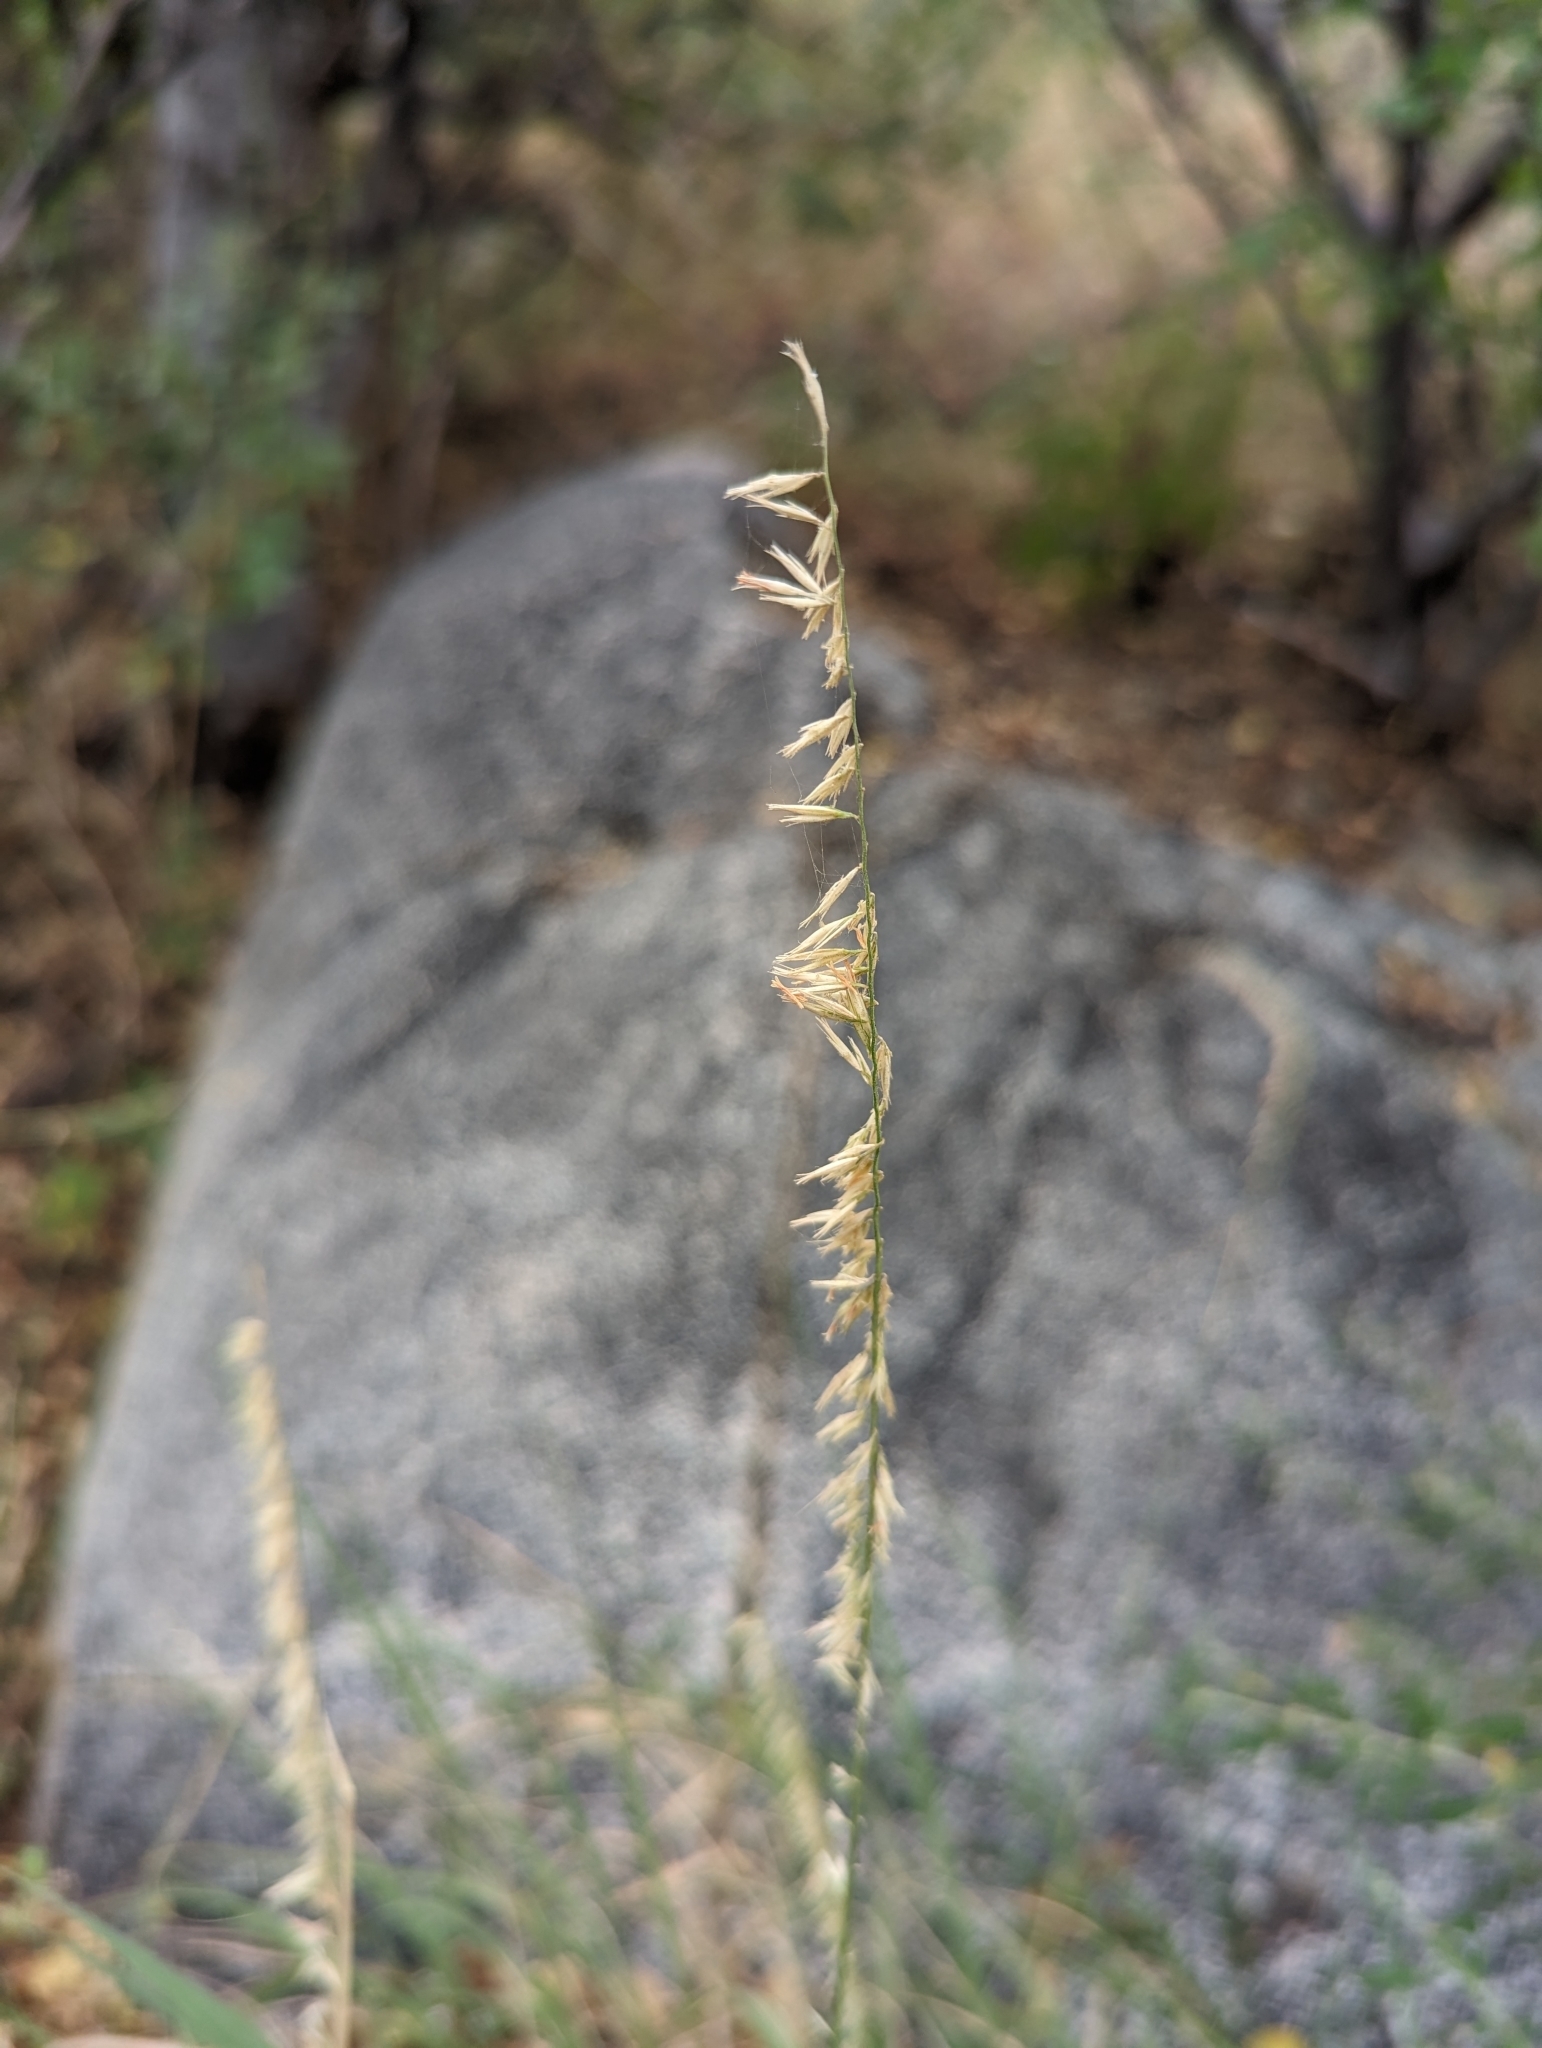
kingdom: Plantae
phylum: Tracheophyta
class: Liliopsida
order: Poales
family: Poaceae
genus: Bouteloua
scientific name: Bouteloua reflexa
